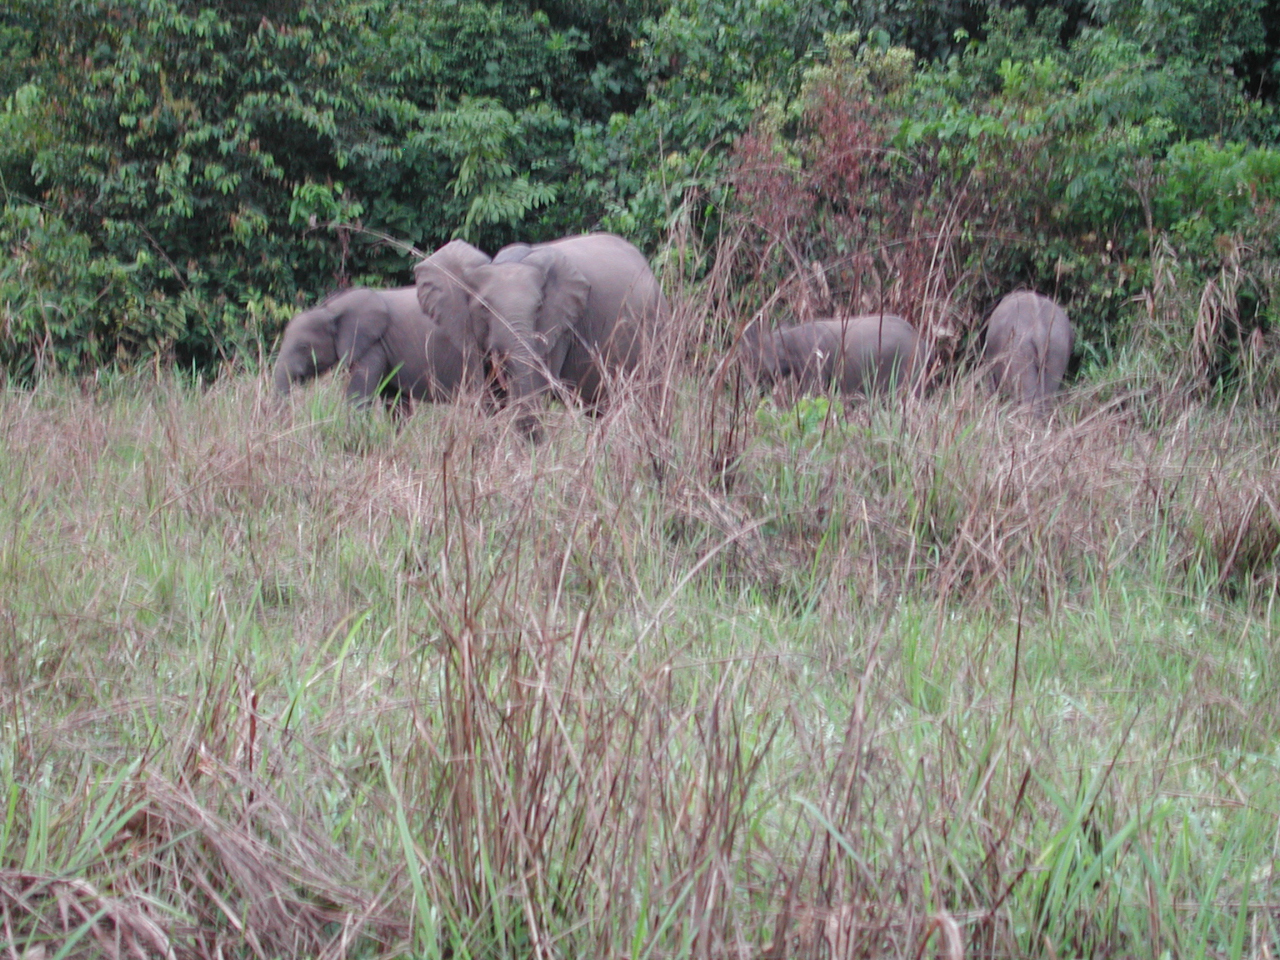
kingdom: Animalia
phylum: Chordata
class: Mammalia
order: Proboscidea
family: Elephantidae
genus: Loxodonta
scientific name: Loxodonta cyclotis
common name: African forest elephant
